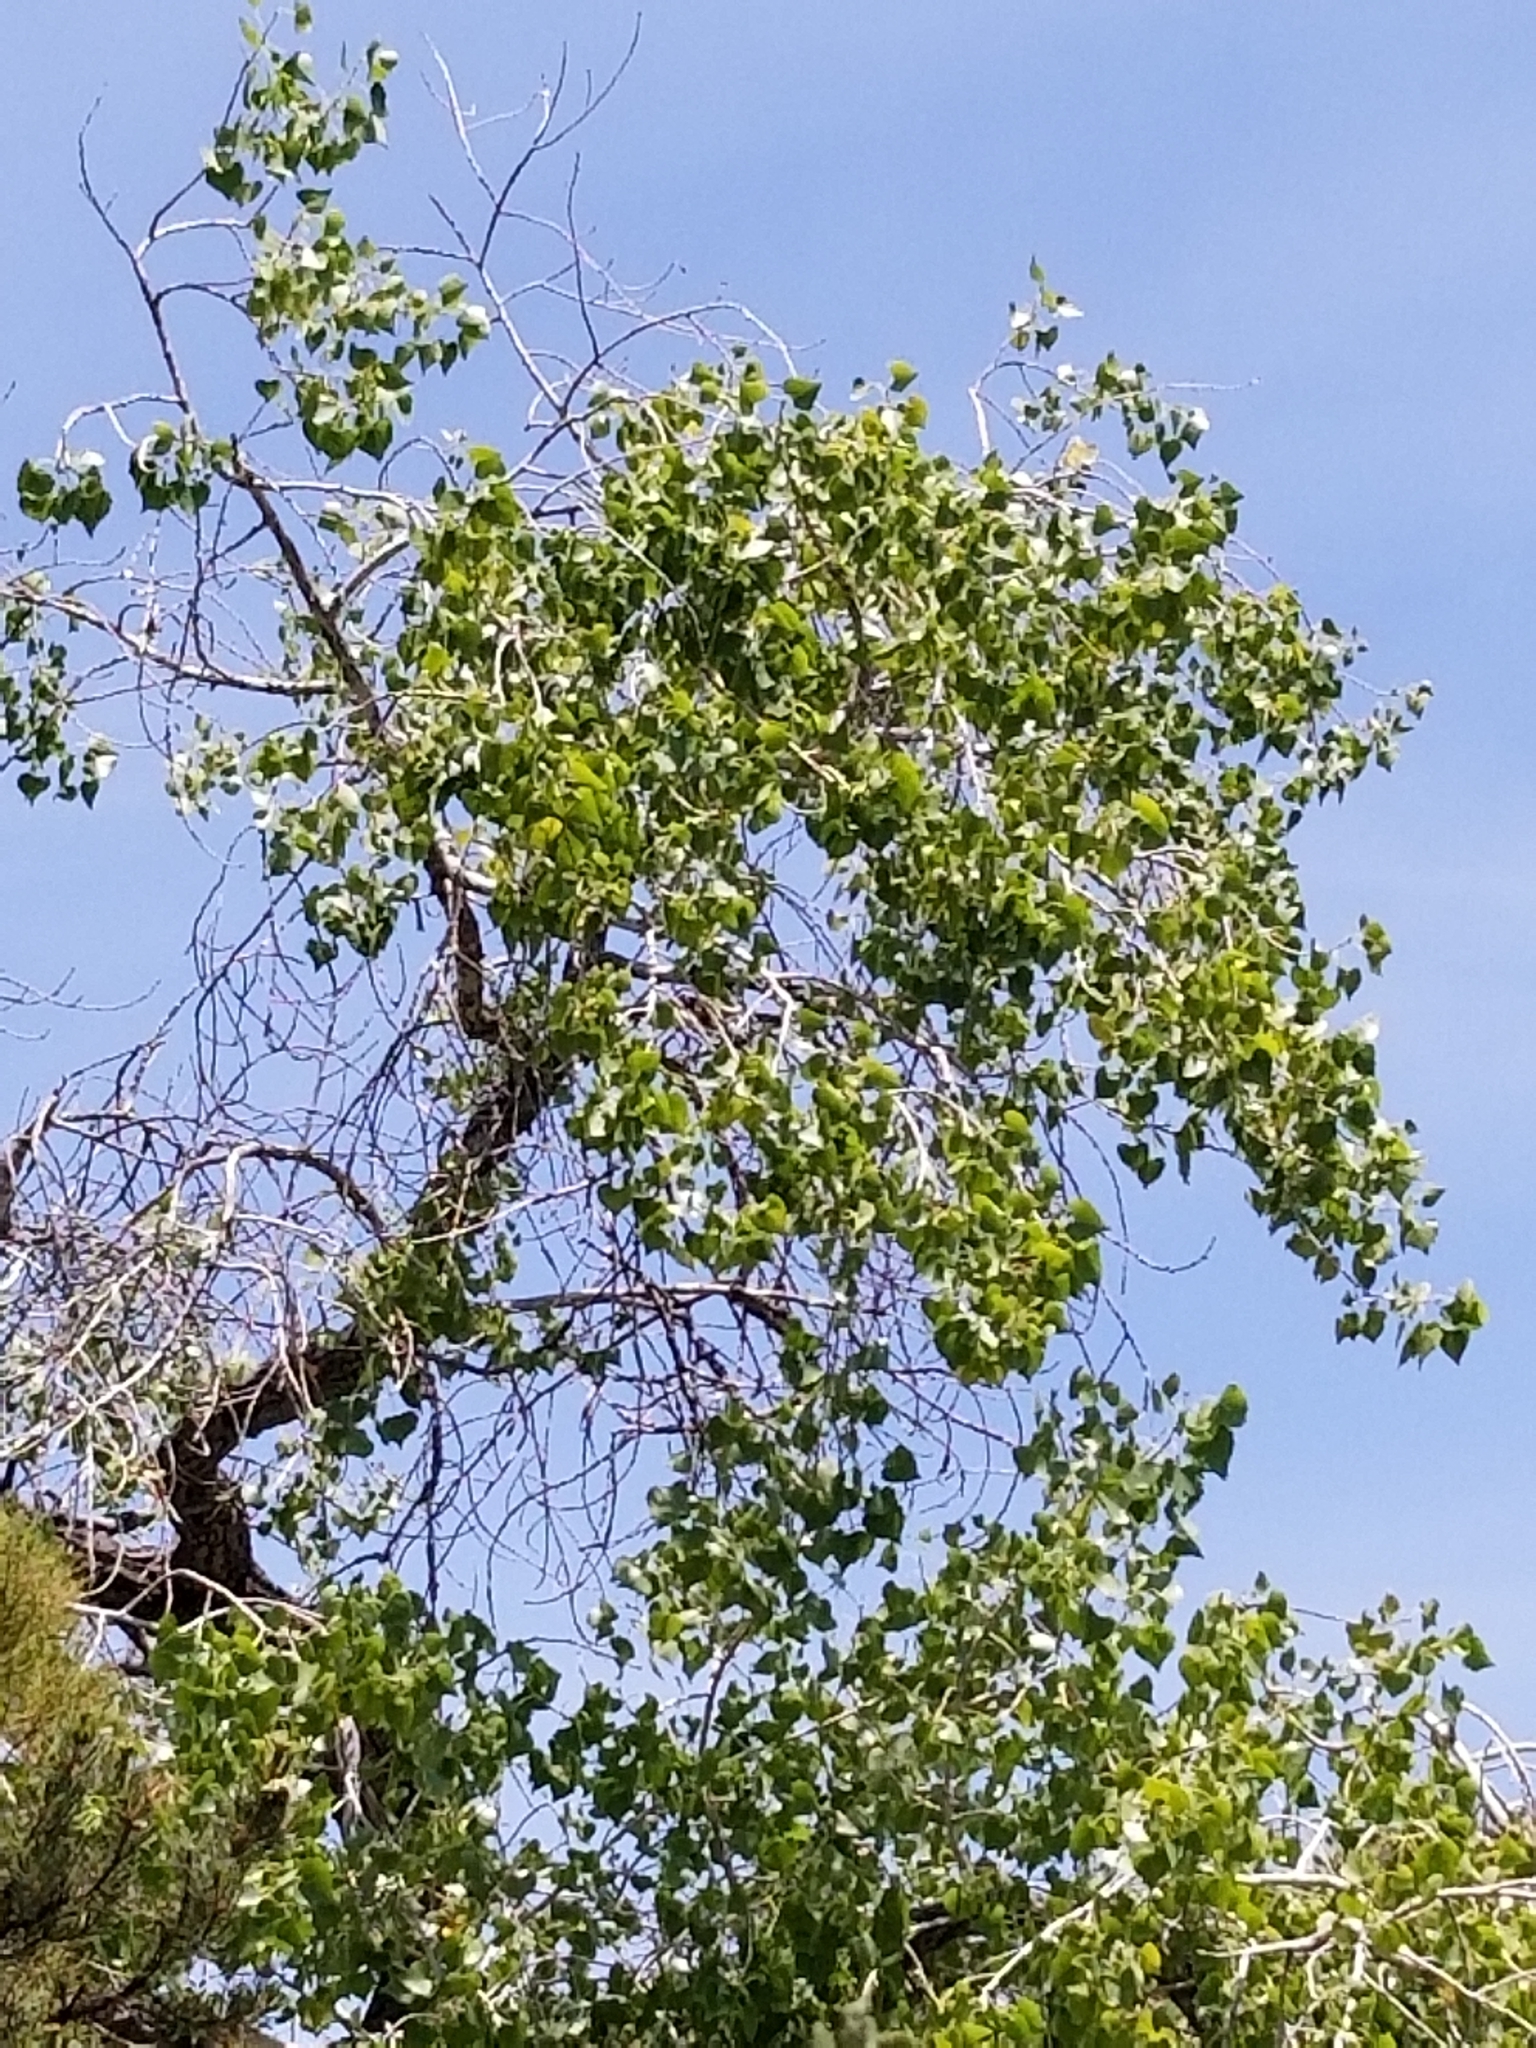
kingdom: Plantae
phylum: Tracheophyta
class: Magnoliopsida
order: Malpighiales
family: Salicaceae
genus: Populus
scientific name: Populus fremontii
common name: Fremont's cottonwood
